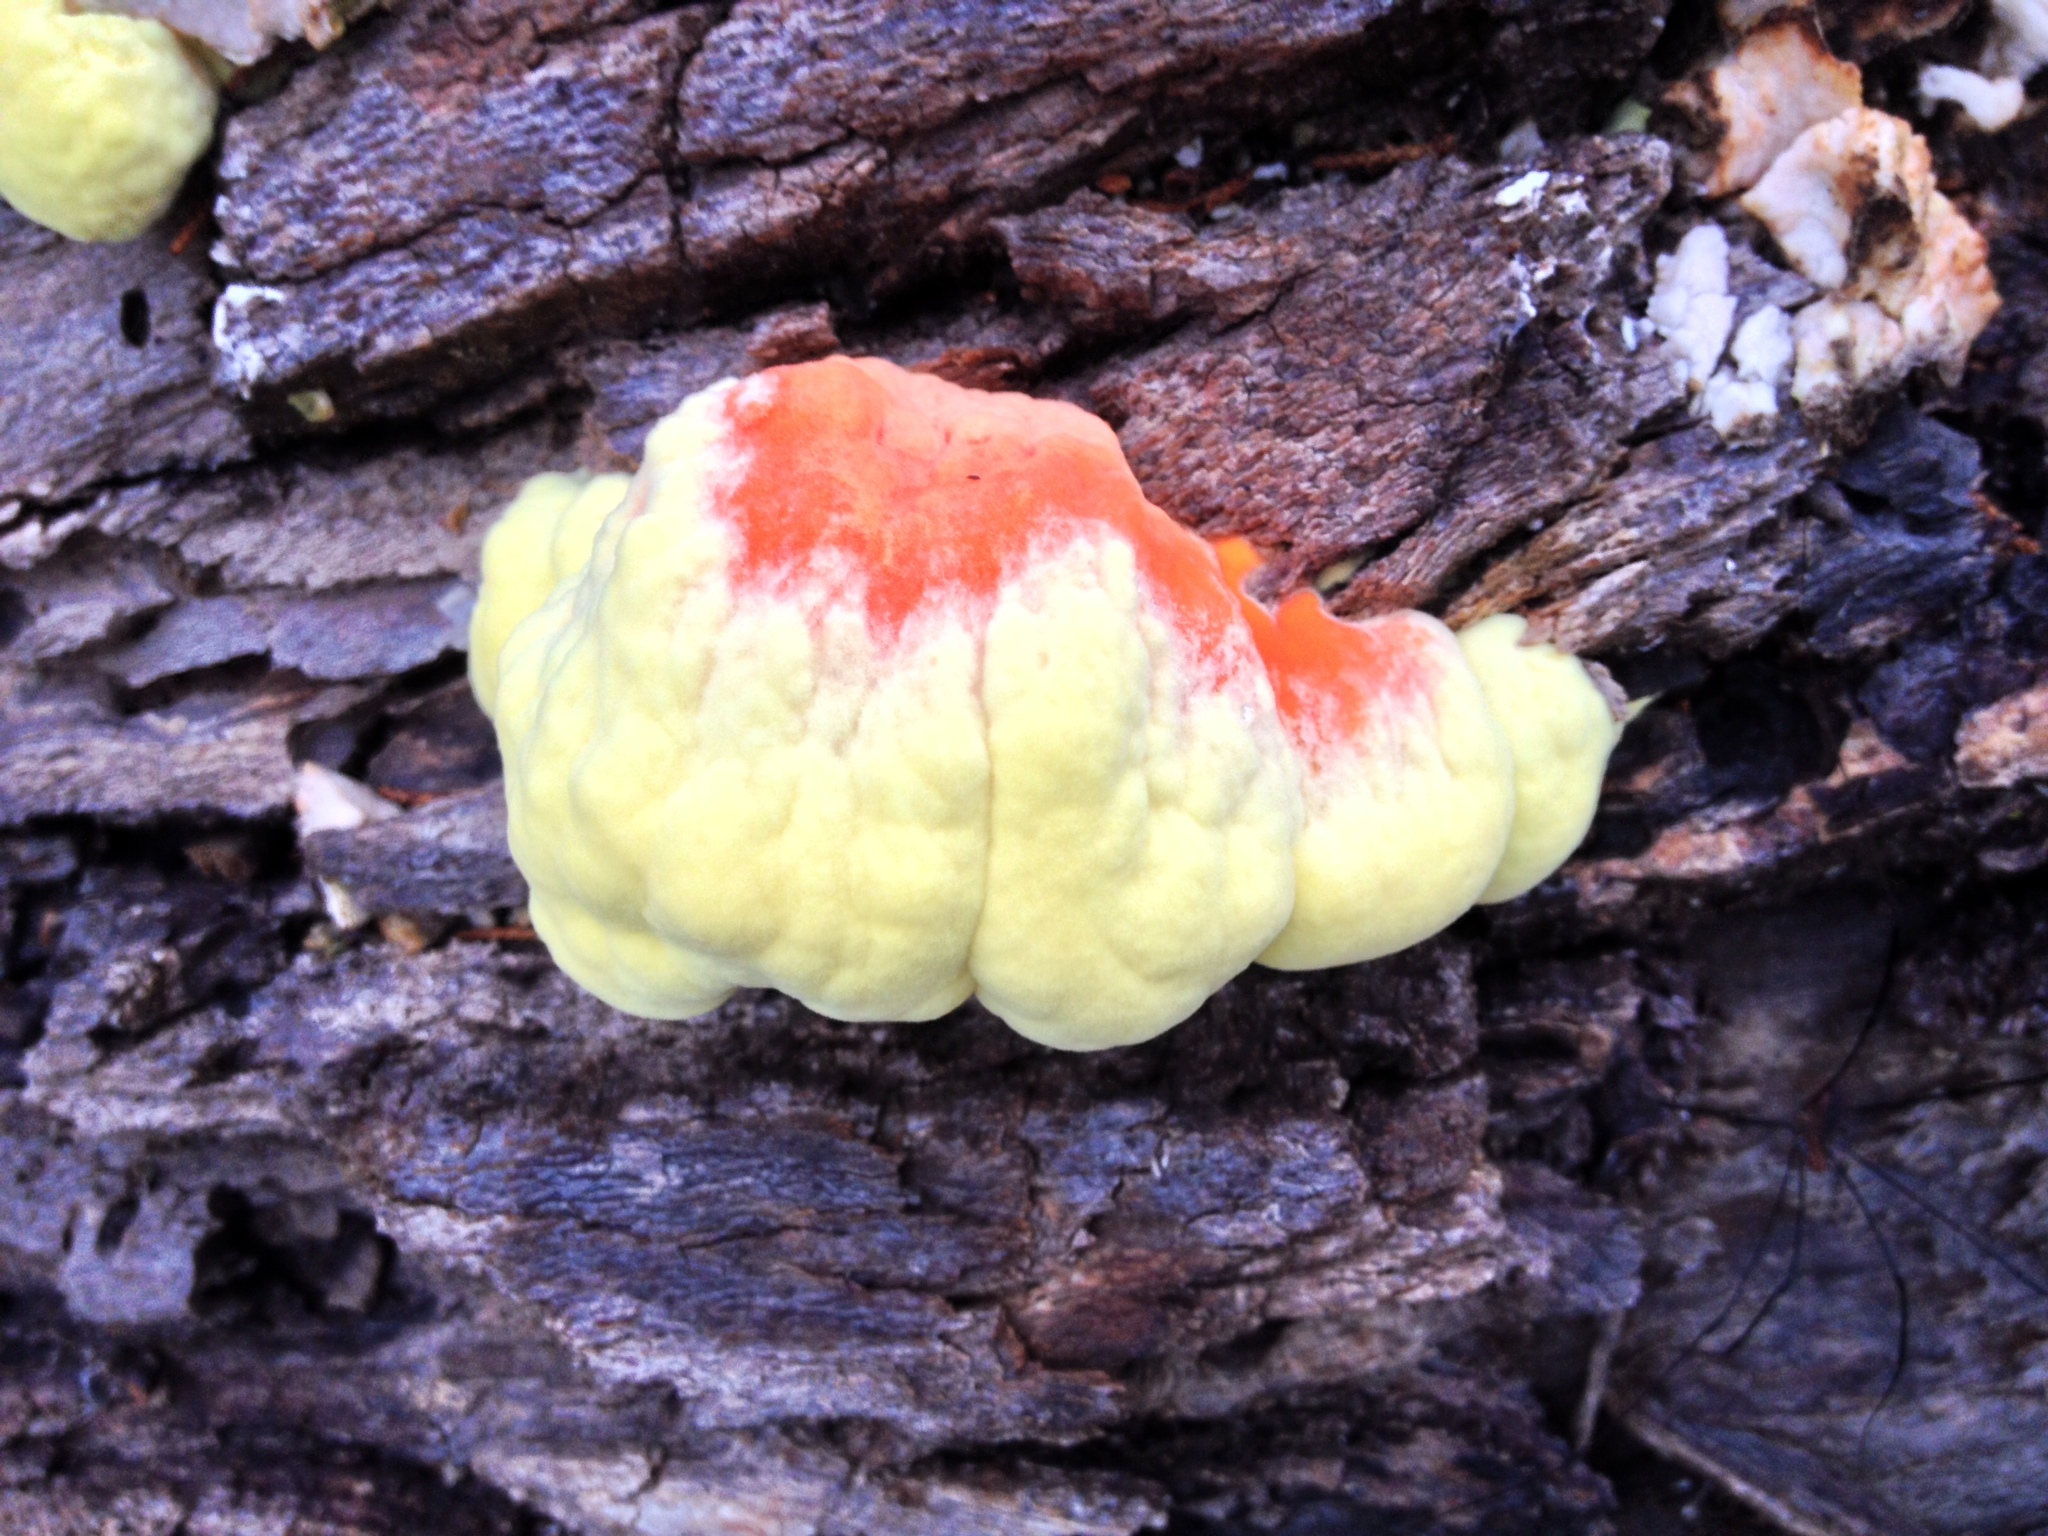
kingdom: Fungi
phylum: Basidiomycota
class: Agaricomycetes
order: Polyporales
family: Laetiporaceae
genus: Laetiporus
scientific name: Laetiporus sulphureus
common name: Chicken of the woods
